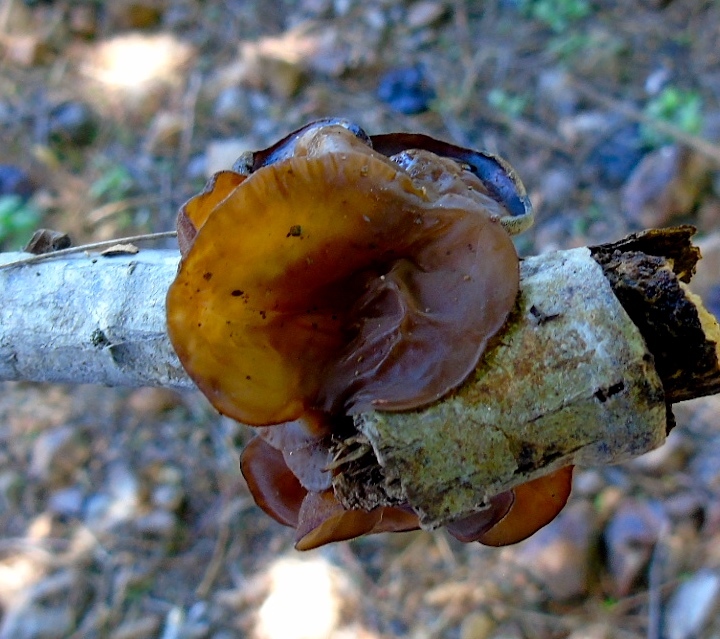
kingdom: Fungi
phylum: Basidiomycota
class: Agaricomycetes
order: Auriculariales
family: Auriculariaceae
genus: Auricularia
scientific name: Auricularia angiospermarum
